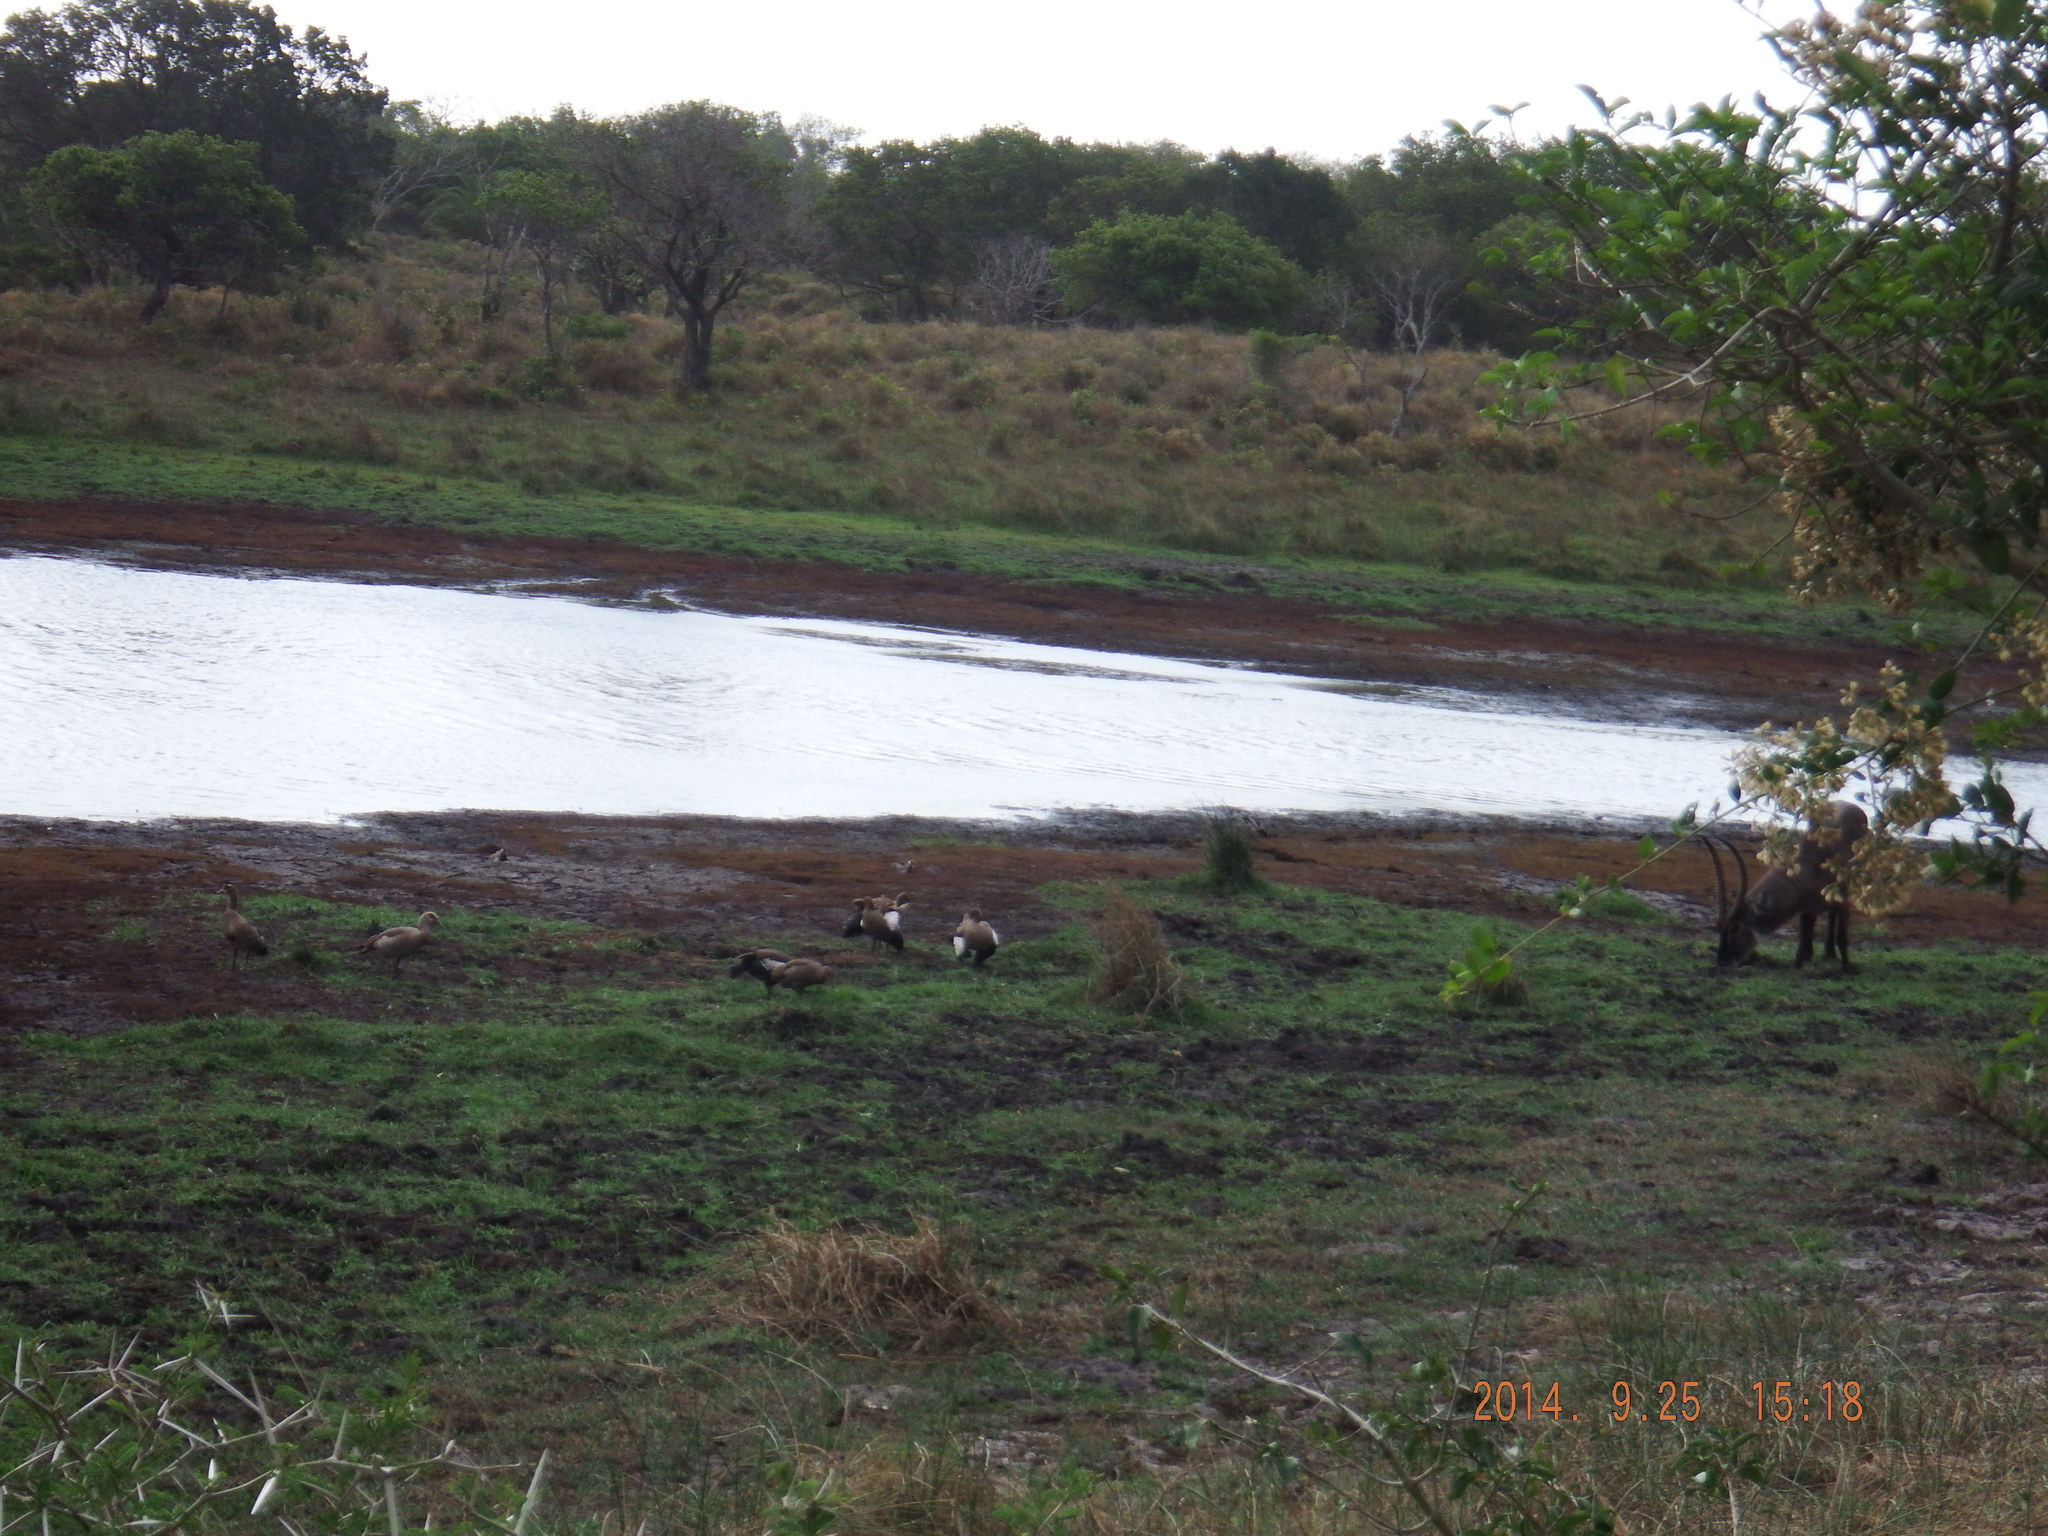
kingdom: Animalia
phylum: Chordata
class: Mammalia
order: Artiodactyla
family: Bovidae
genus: Kobus
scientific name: Kobus ellipsiprymnus
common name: Waterbuck
